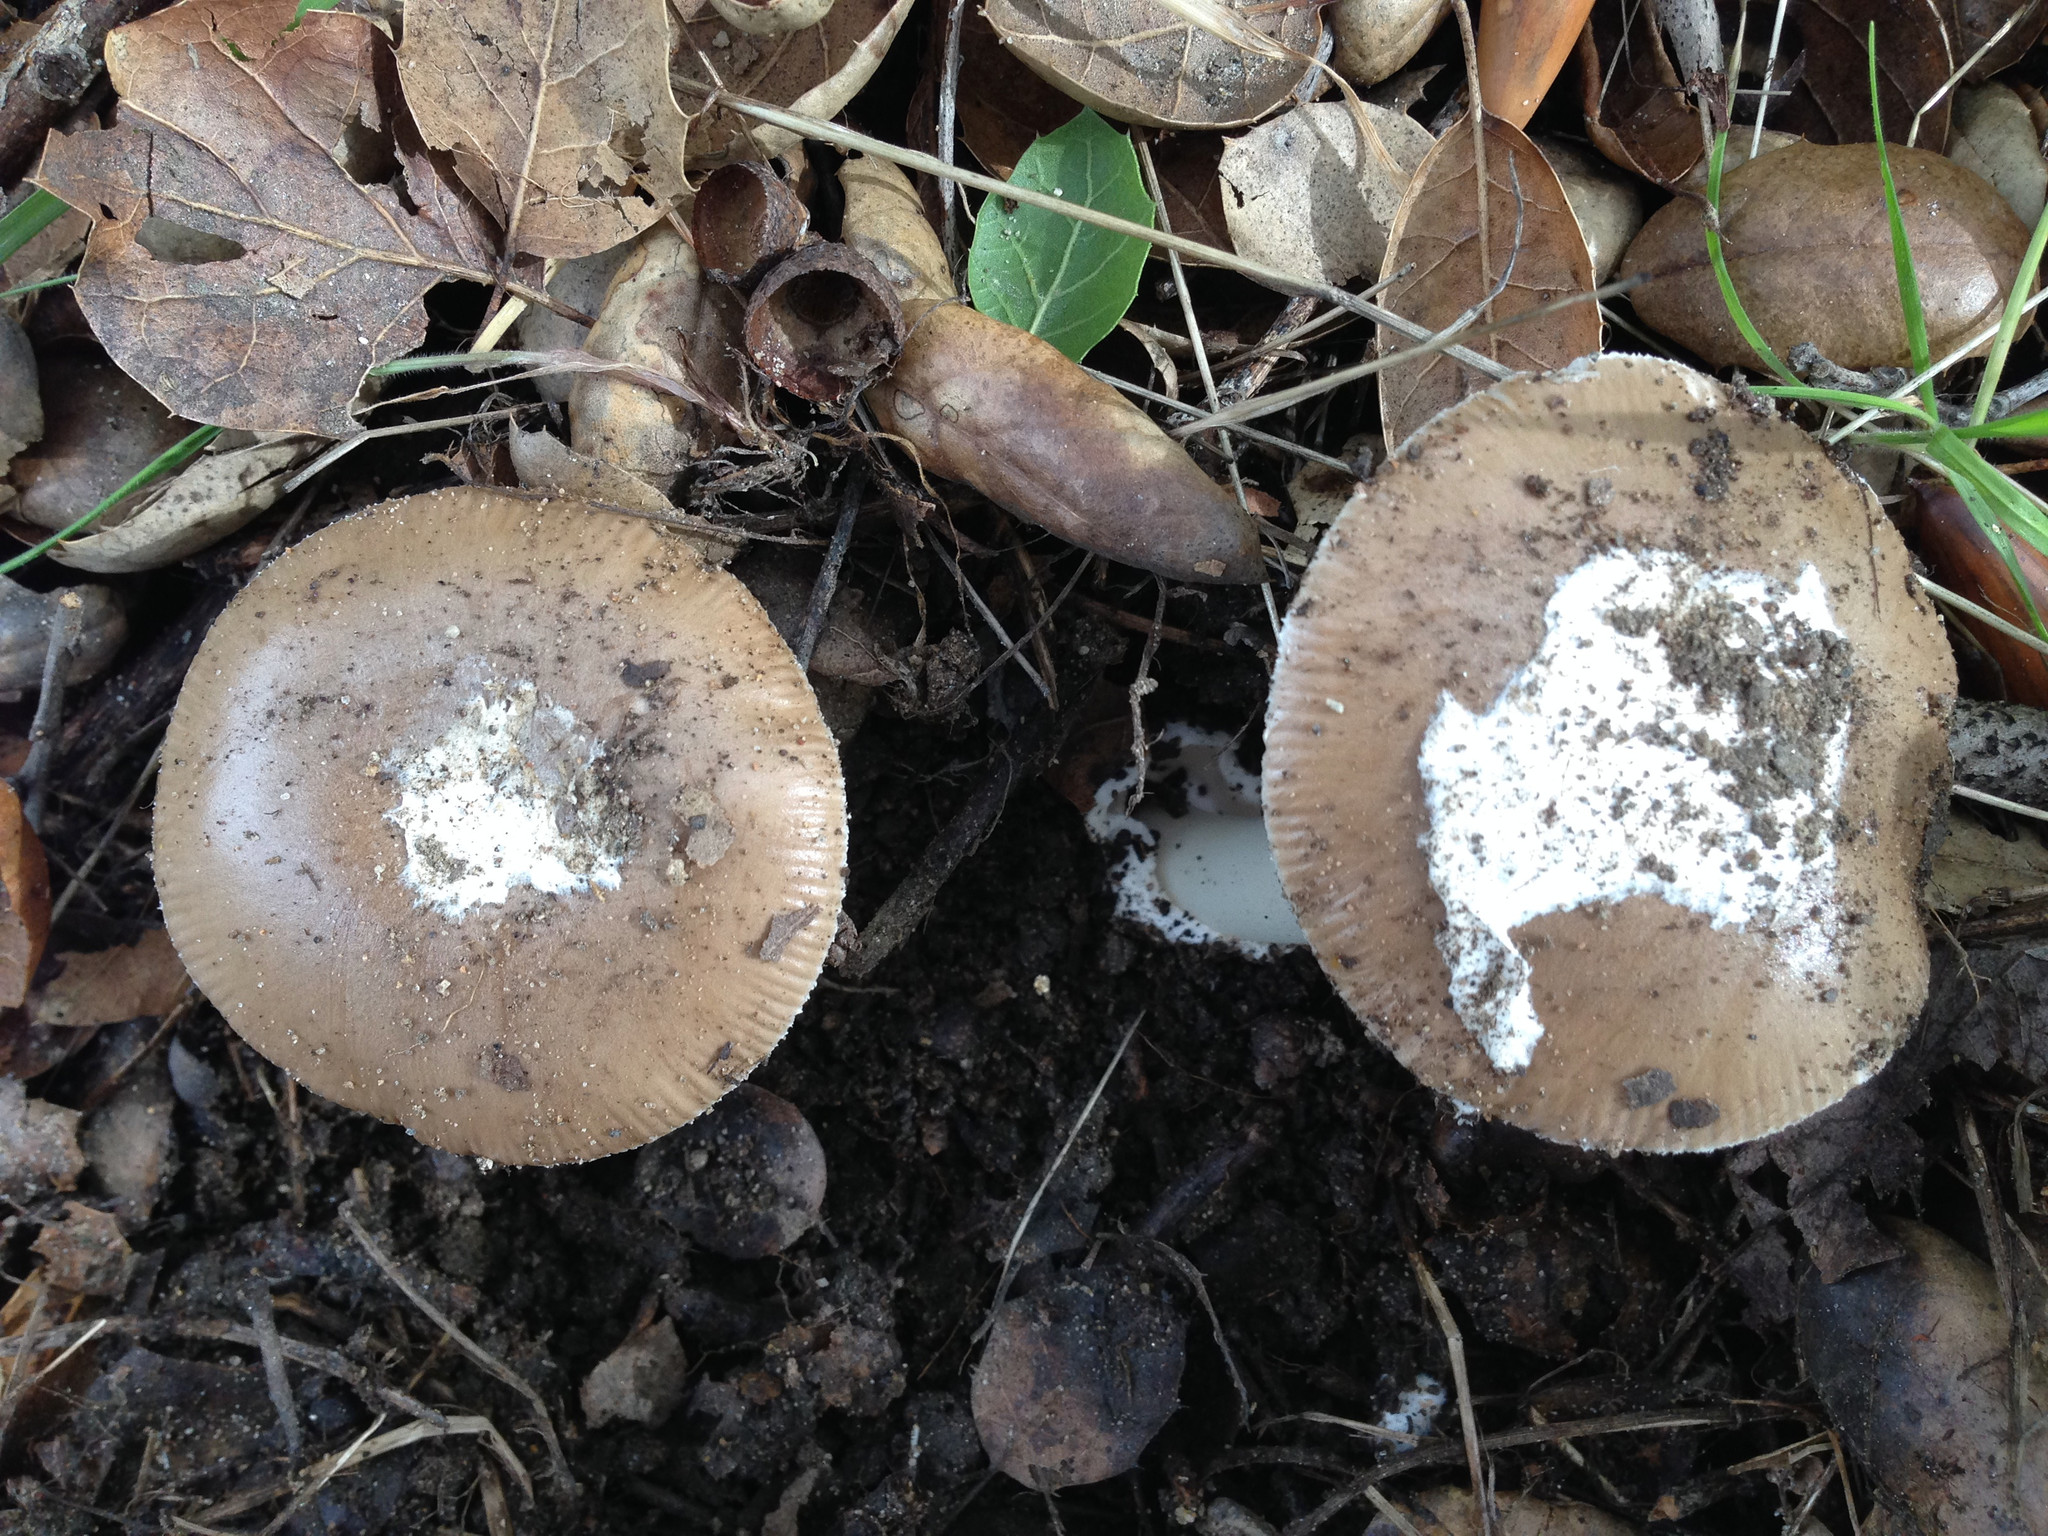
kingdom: Fungi
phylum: Basidiomycota
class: Agaricomycetes
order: Agaricales
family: Amanitaceae
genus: Amanita
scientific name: Amanita calyptratoides
